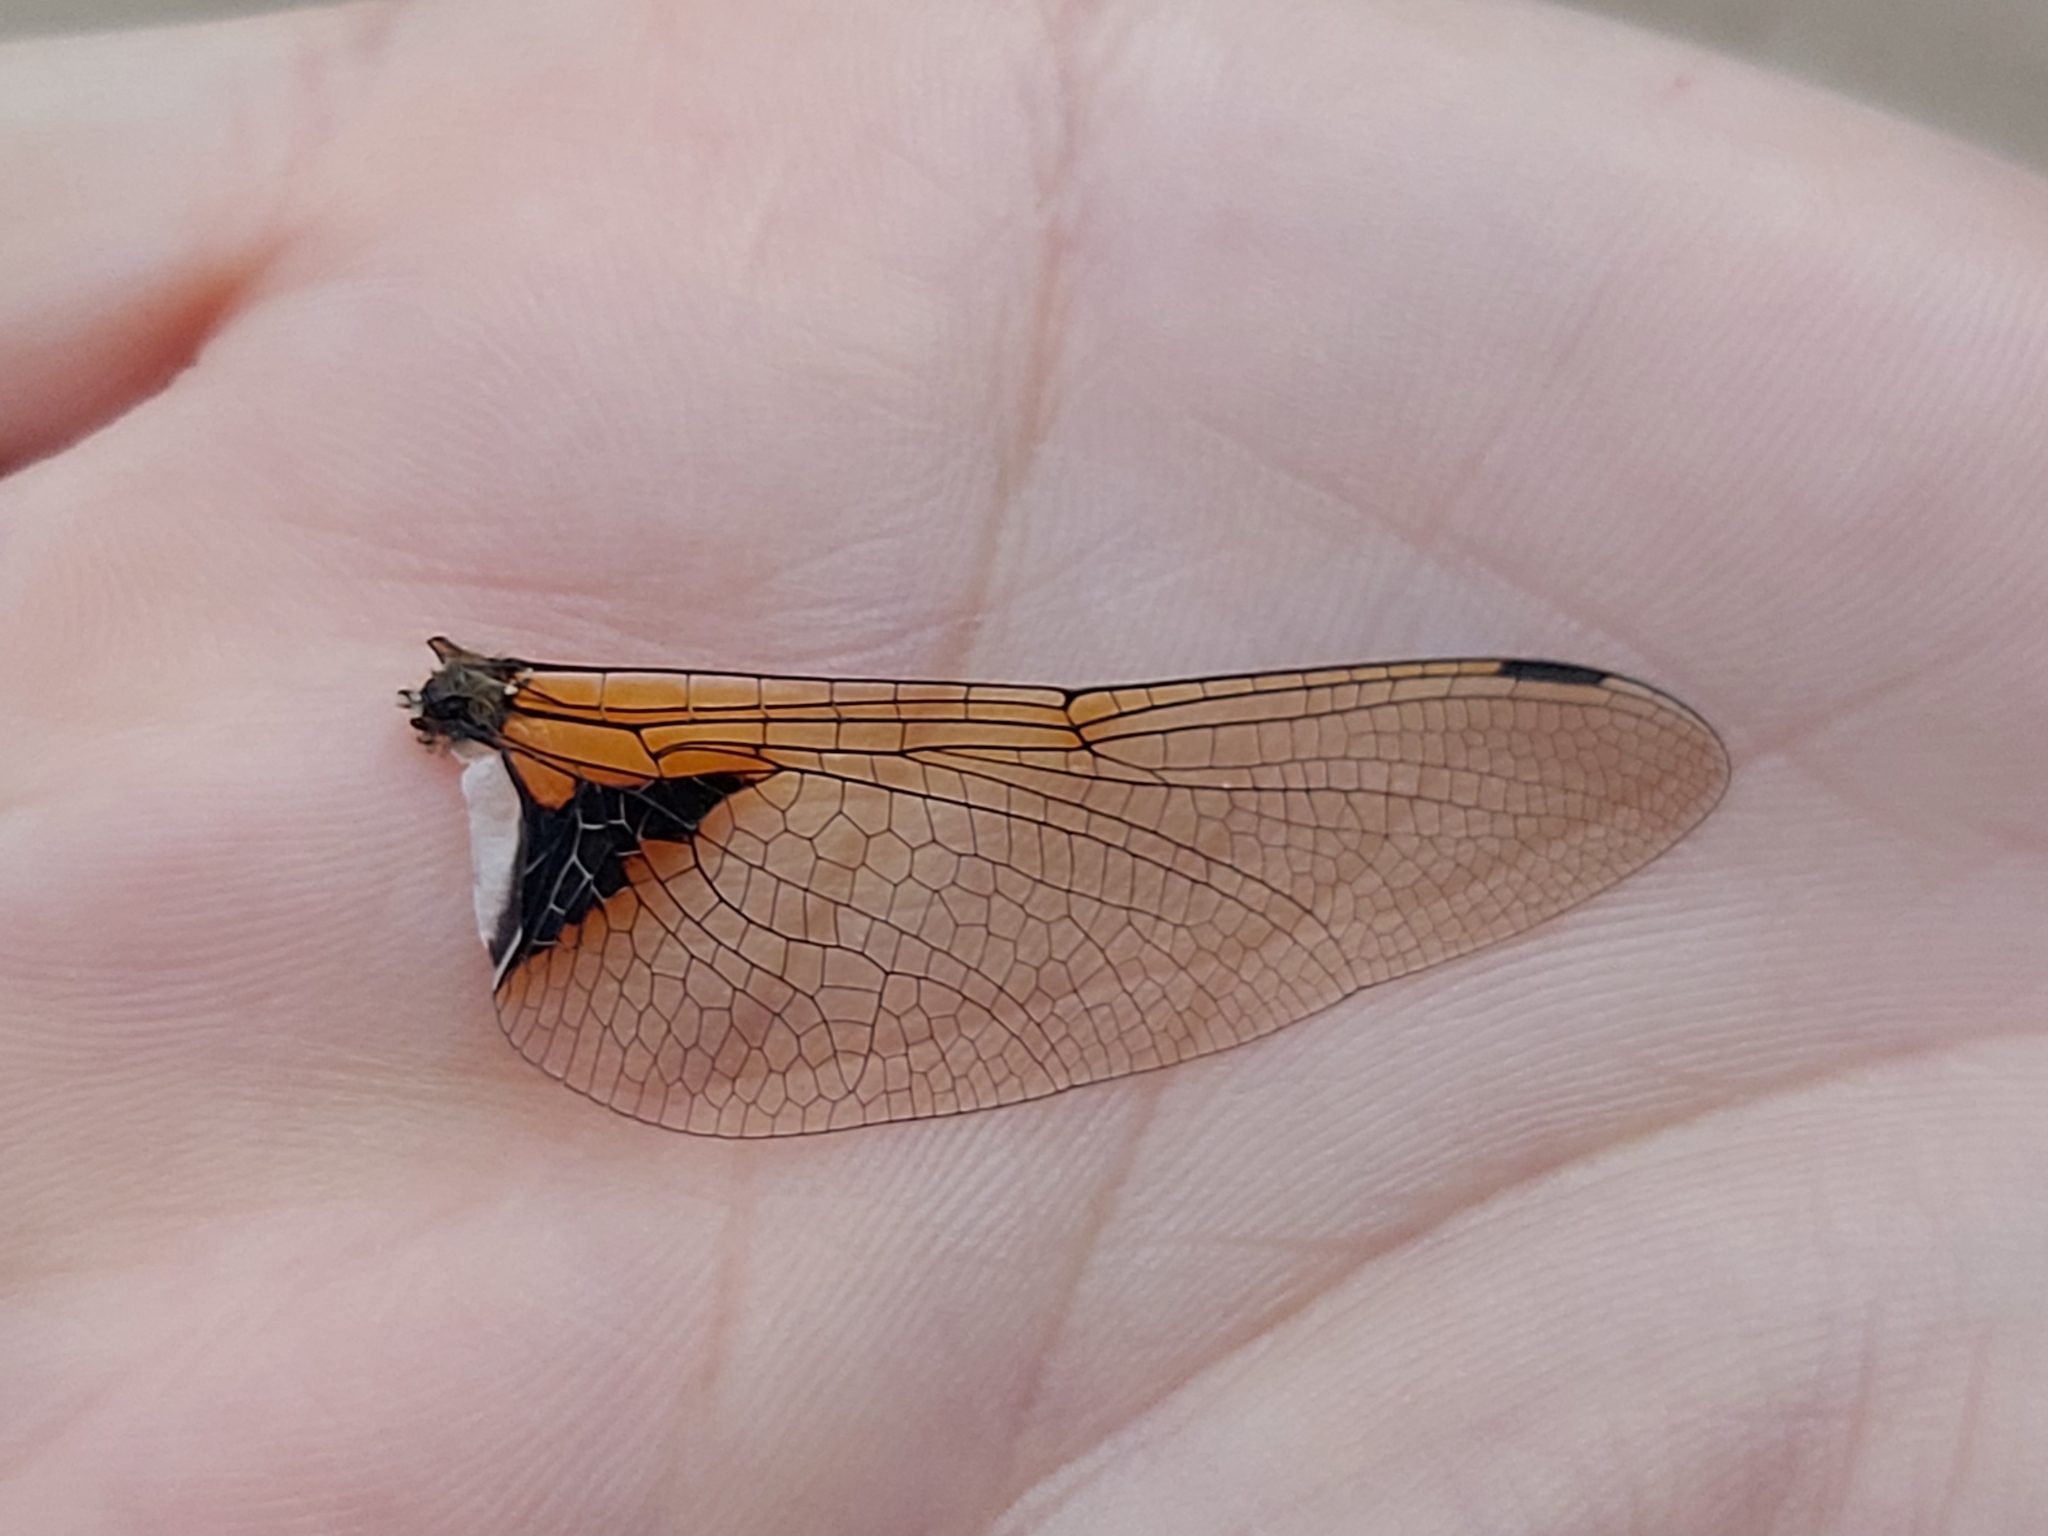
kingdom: Animalia
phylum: Arthropoda
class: Insecta
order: Odonata
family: Corduliidae
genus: Epitheca
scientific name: Epitheca bimaculata
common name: Eurasian baskettail
